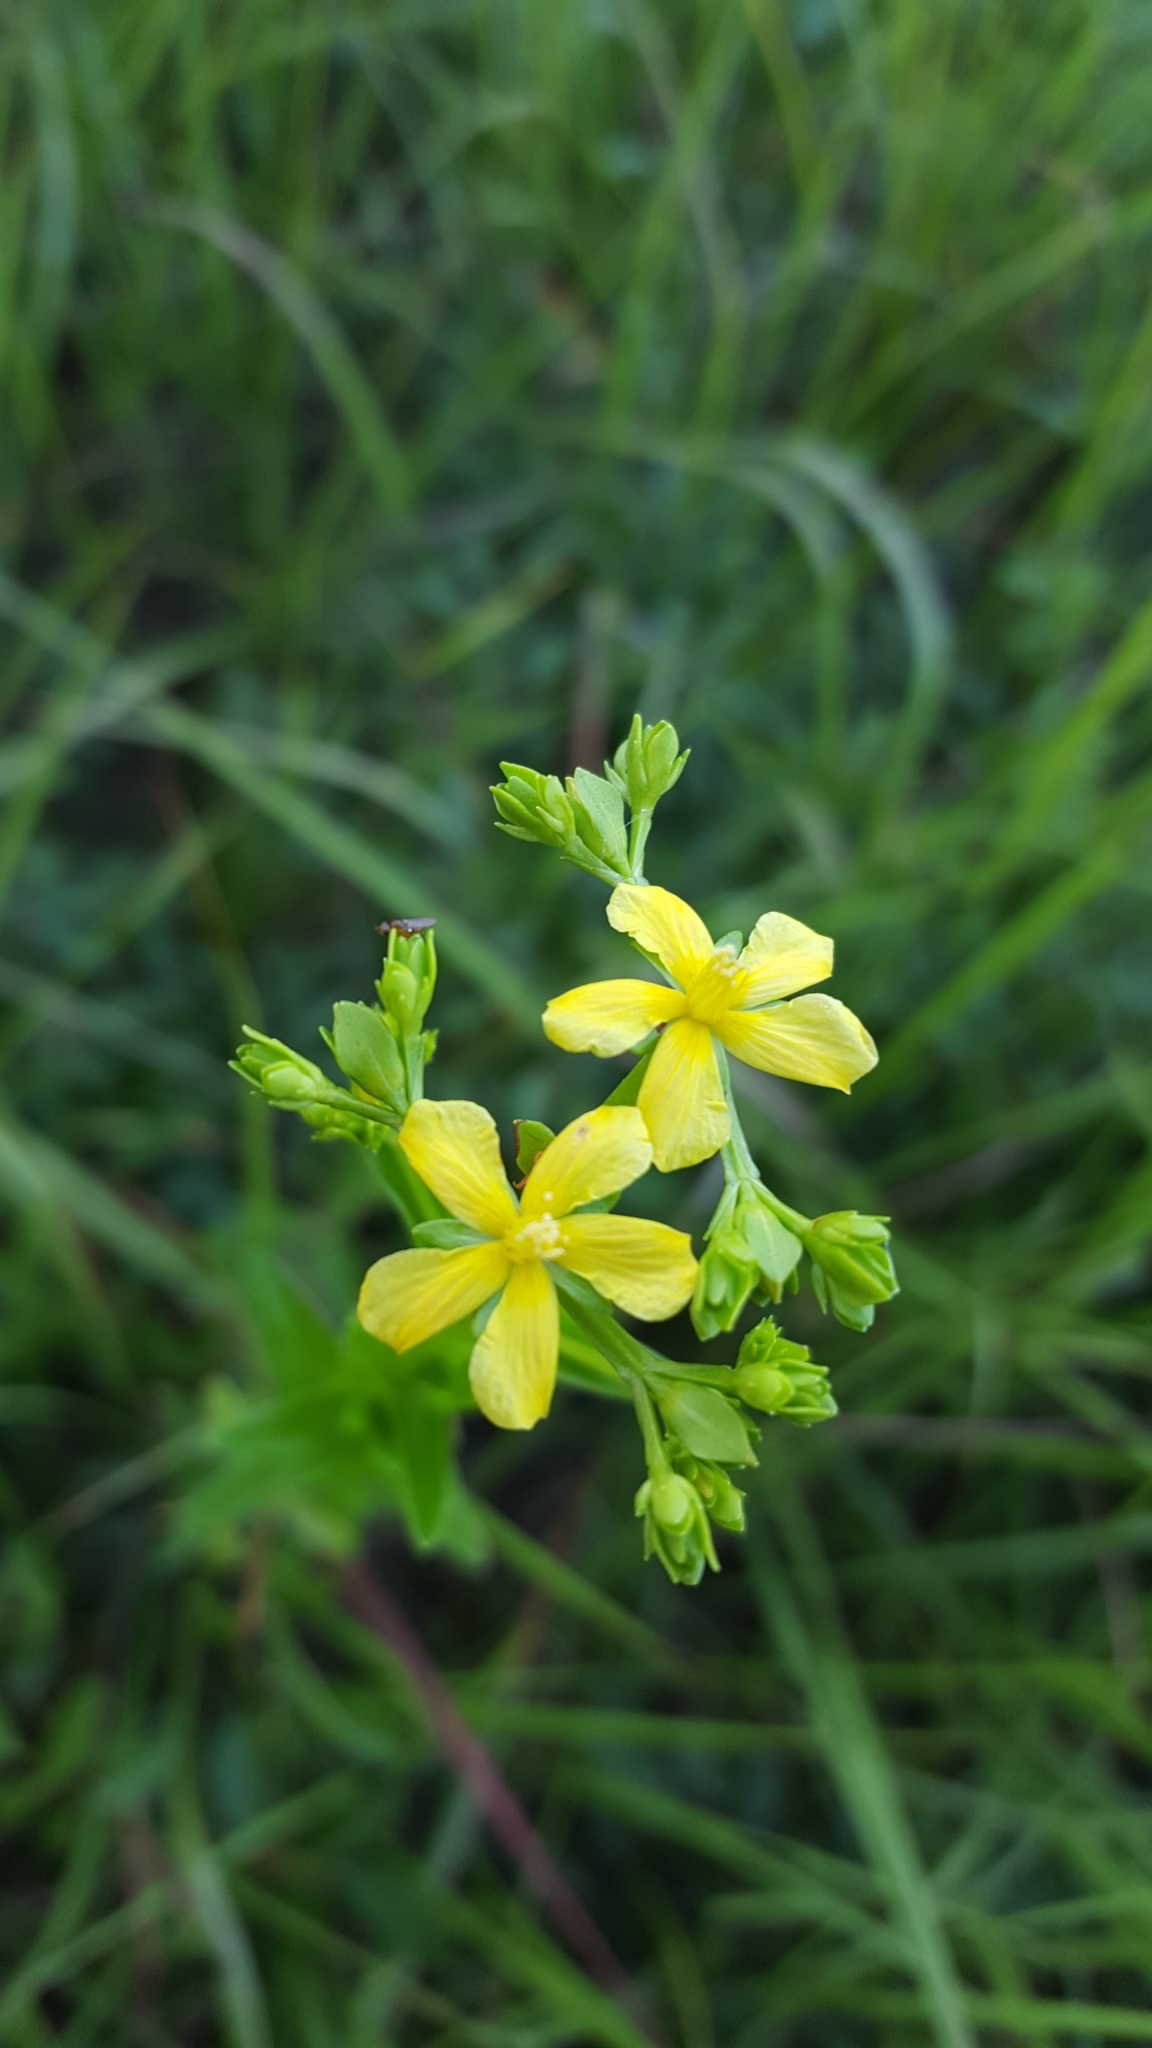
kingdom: Plantae
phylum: Tracheophyta
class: Magnoliopsida
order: Malpighiales
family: Hypericaceae
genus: Hypericum
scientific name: Hypericum cistifolium
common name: Round-pod st. john's-wort
